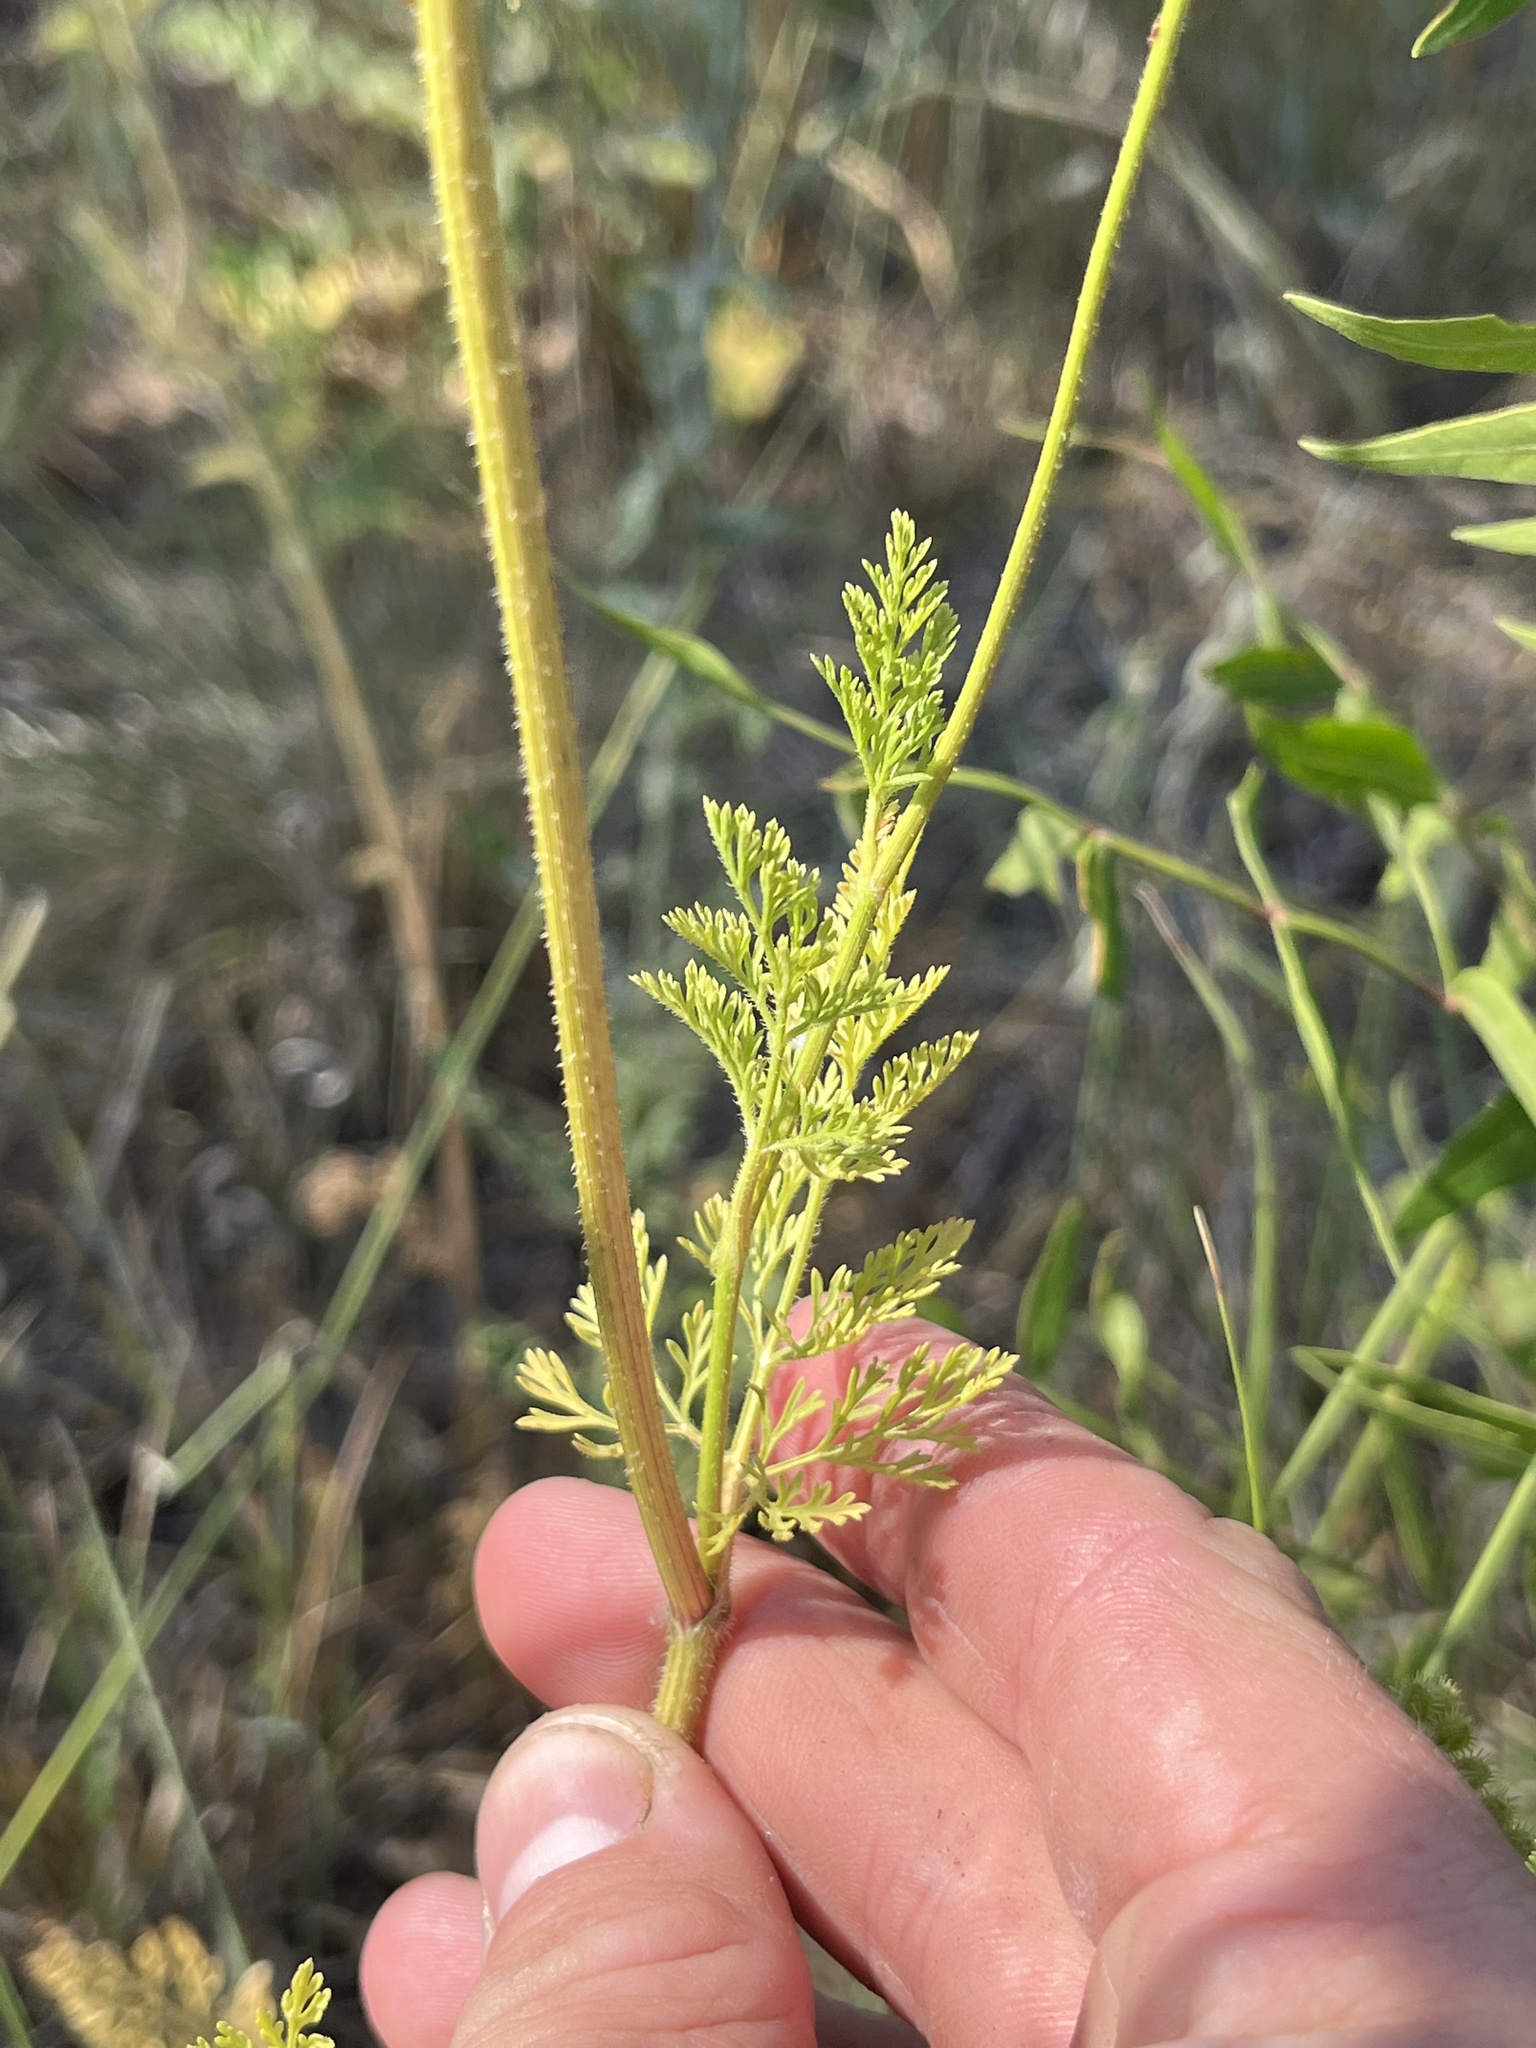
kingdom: Plantae
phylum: Tracheophyta
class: Magnoliopsida
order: Apiales
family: Apiaceae
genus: Daucus
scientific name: Daucus pusillus
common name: Southwest wild carrot
